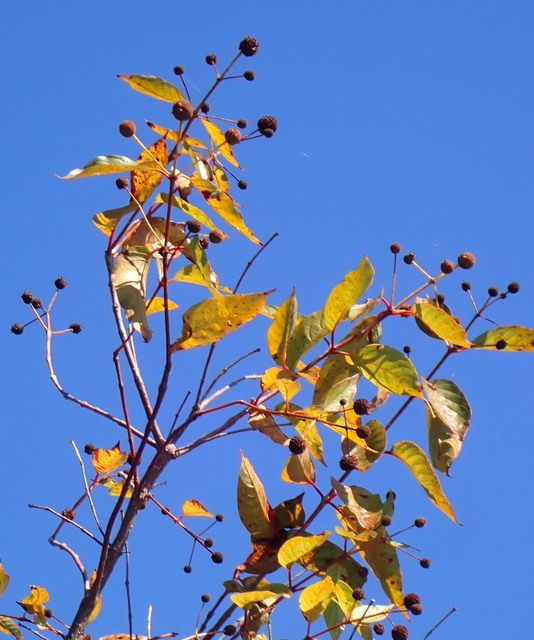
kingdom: Plantae
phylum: Tracheophyta
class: Magnoliopsida
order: Gentianales
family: Rubiaceae
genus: Cephalanthus
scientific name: Cephalanthus occidentalis
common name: Button-willow
